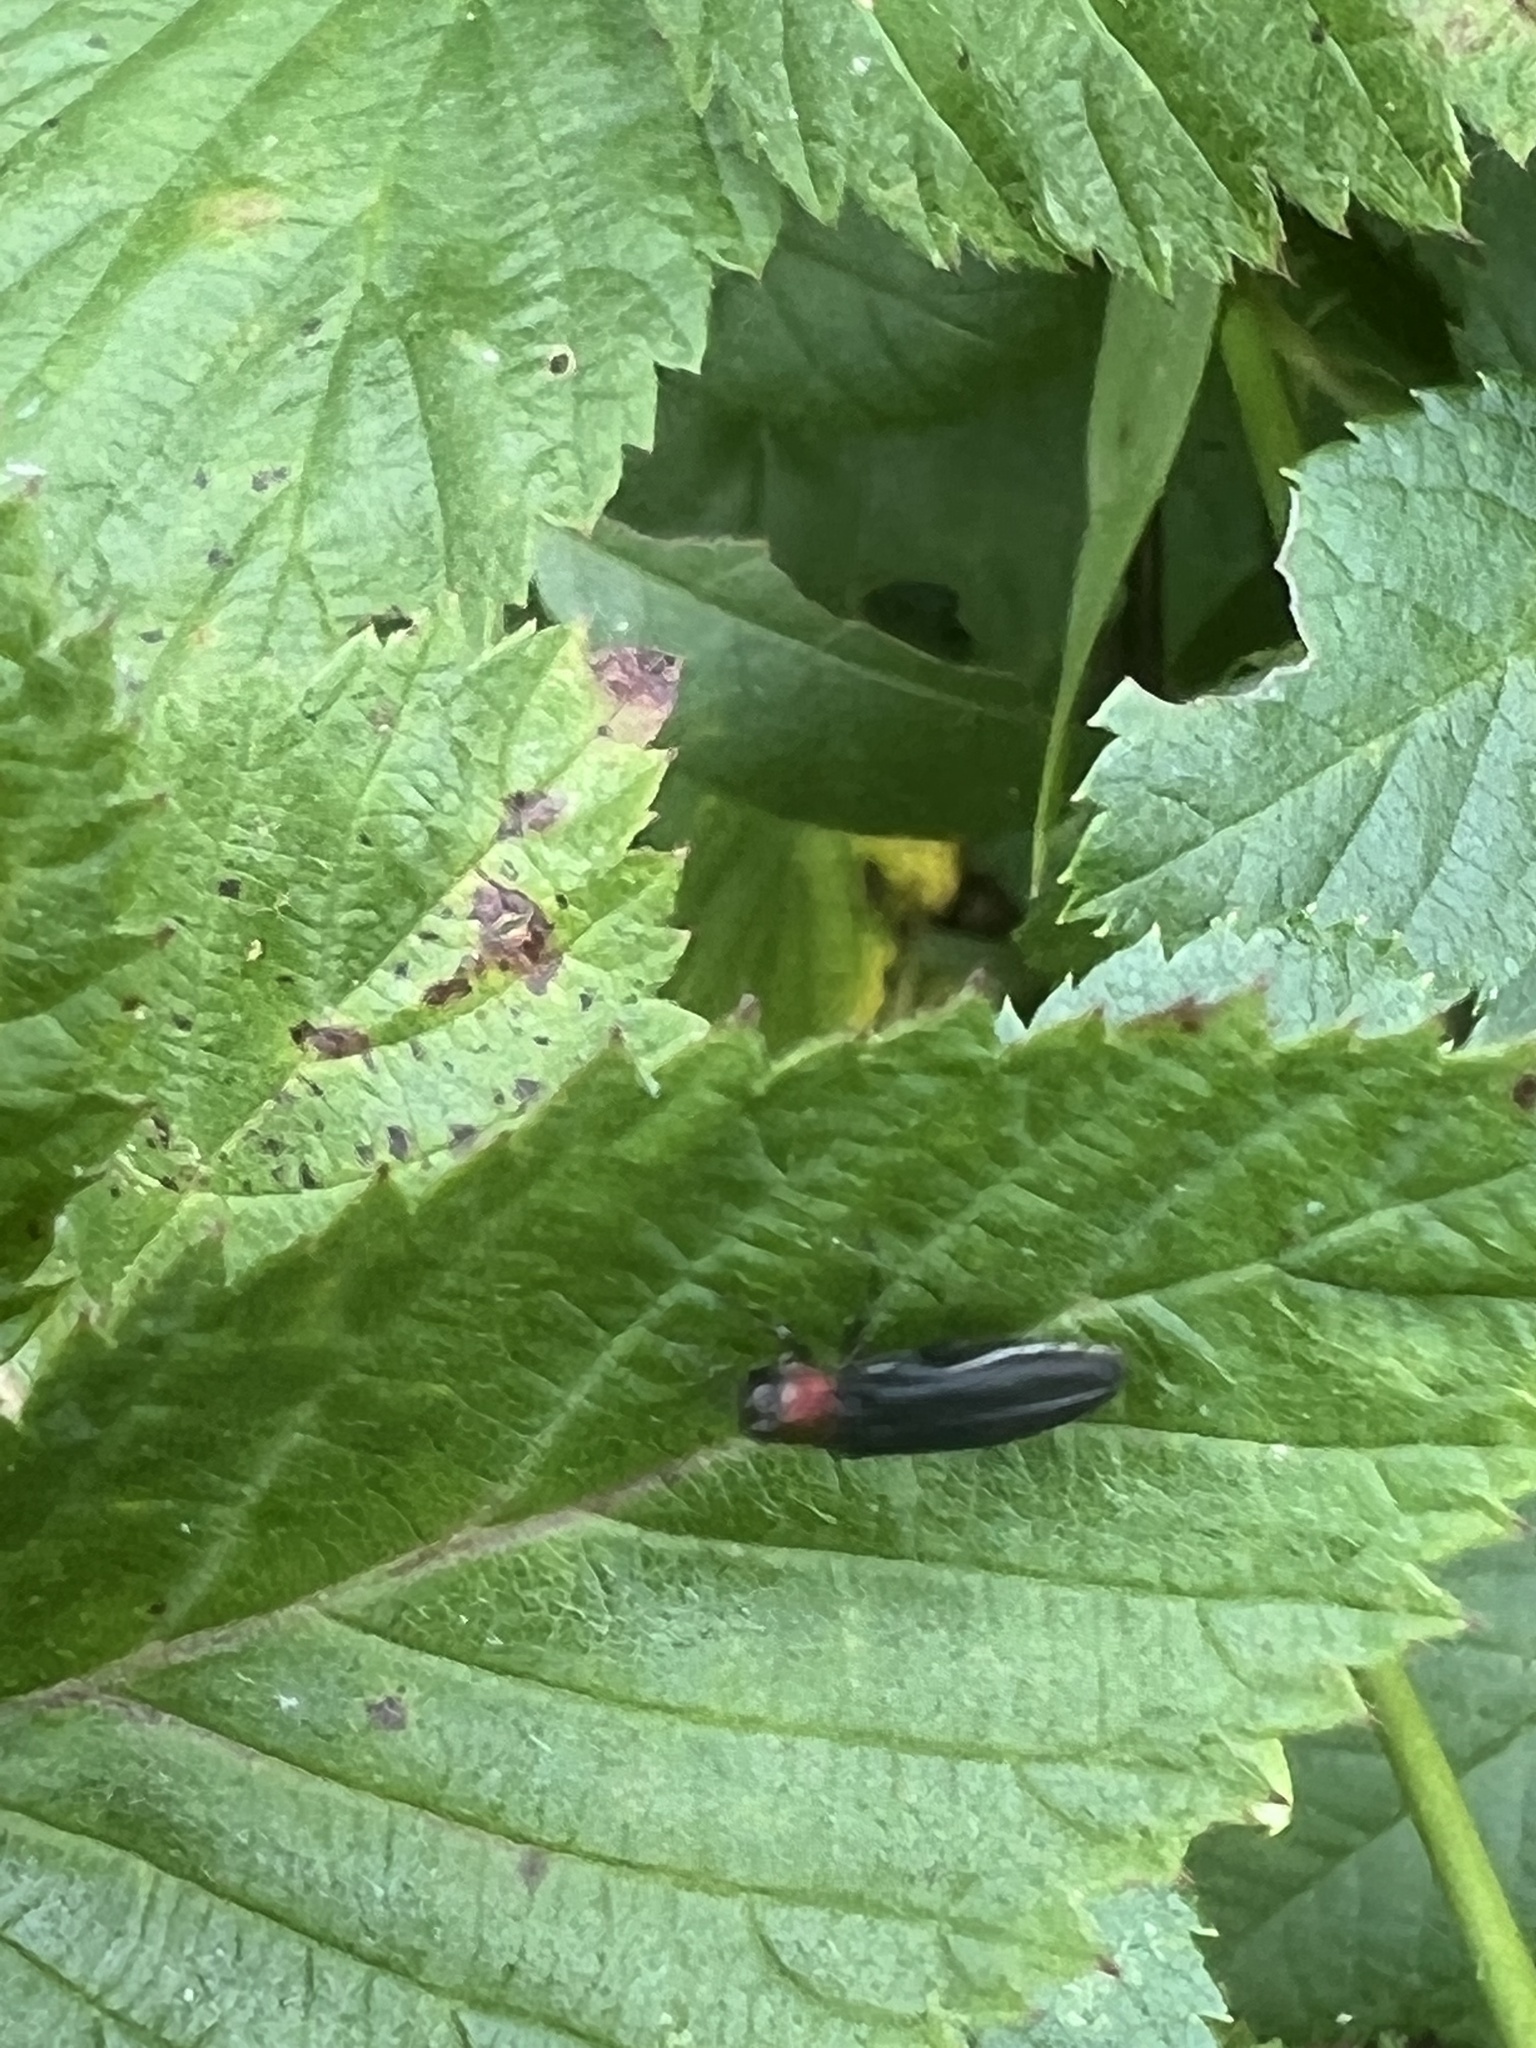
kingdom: Animalia
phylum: Arthropoda
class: Insecta
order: Coleoptera
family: Buprestidae
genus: Agrilus
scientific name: Agrilus ruficollis
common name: Red-necked cane borer beetle
